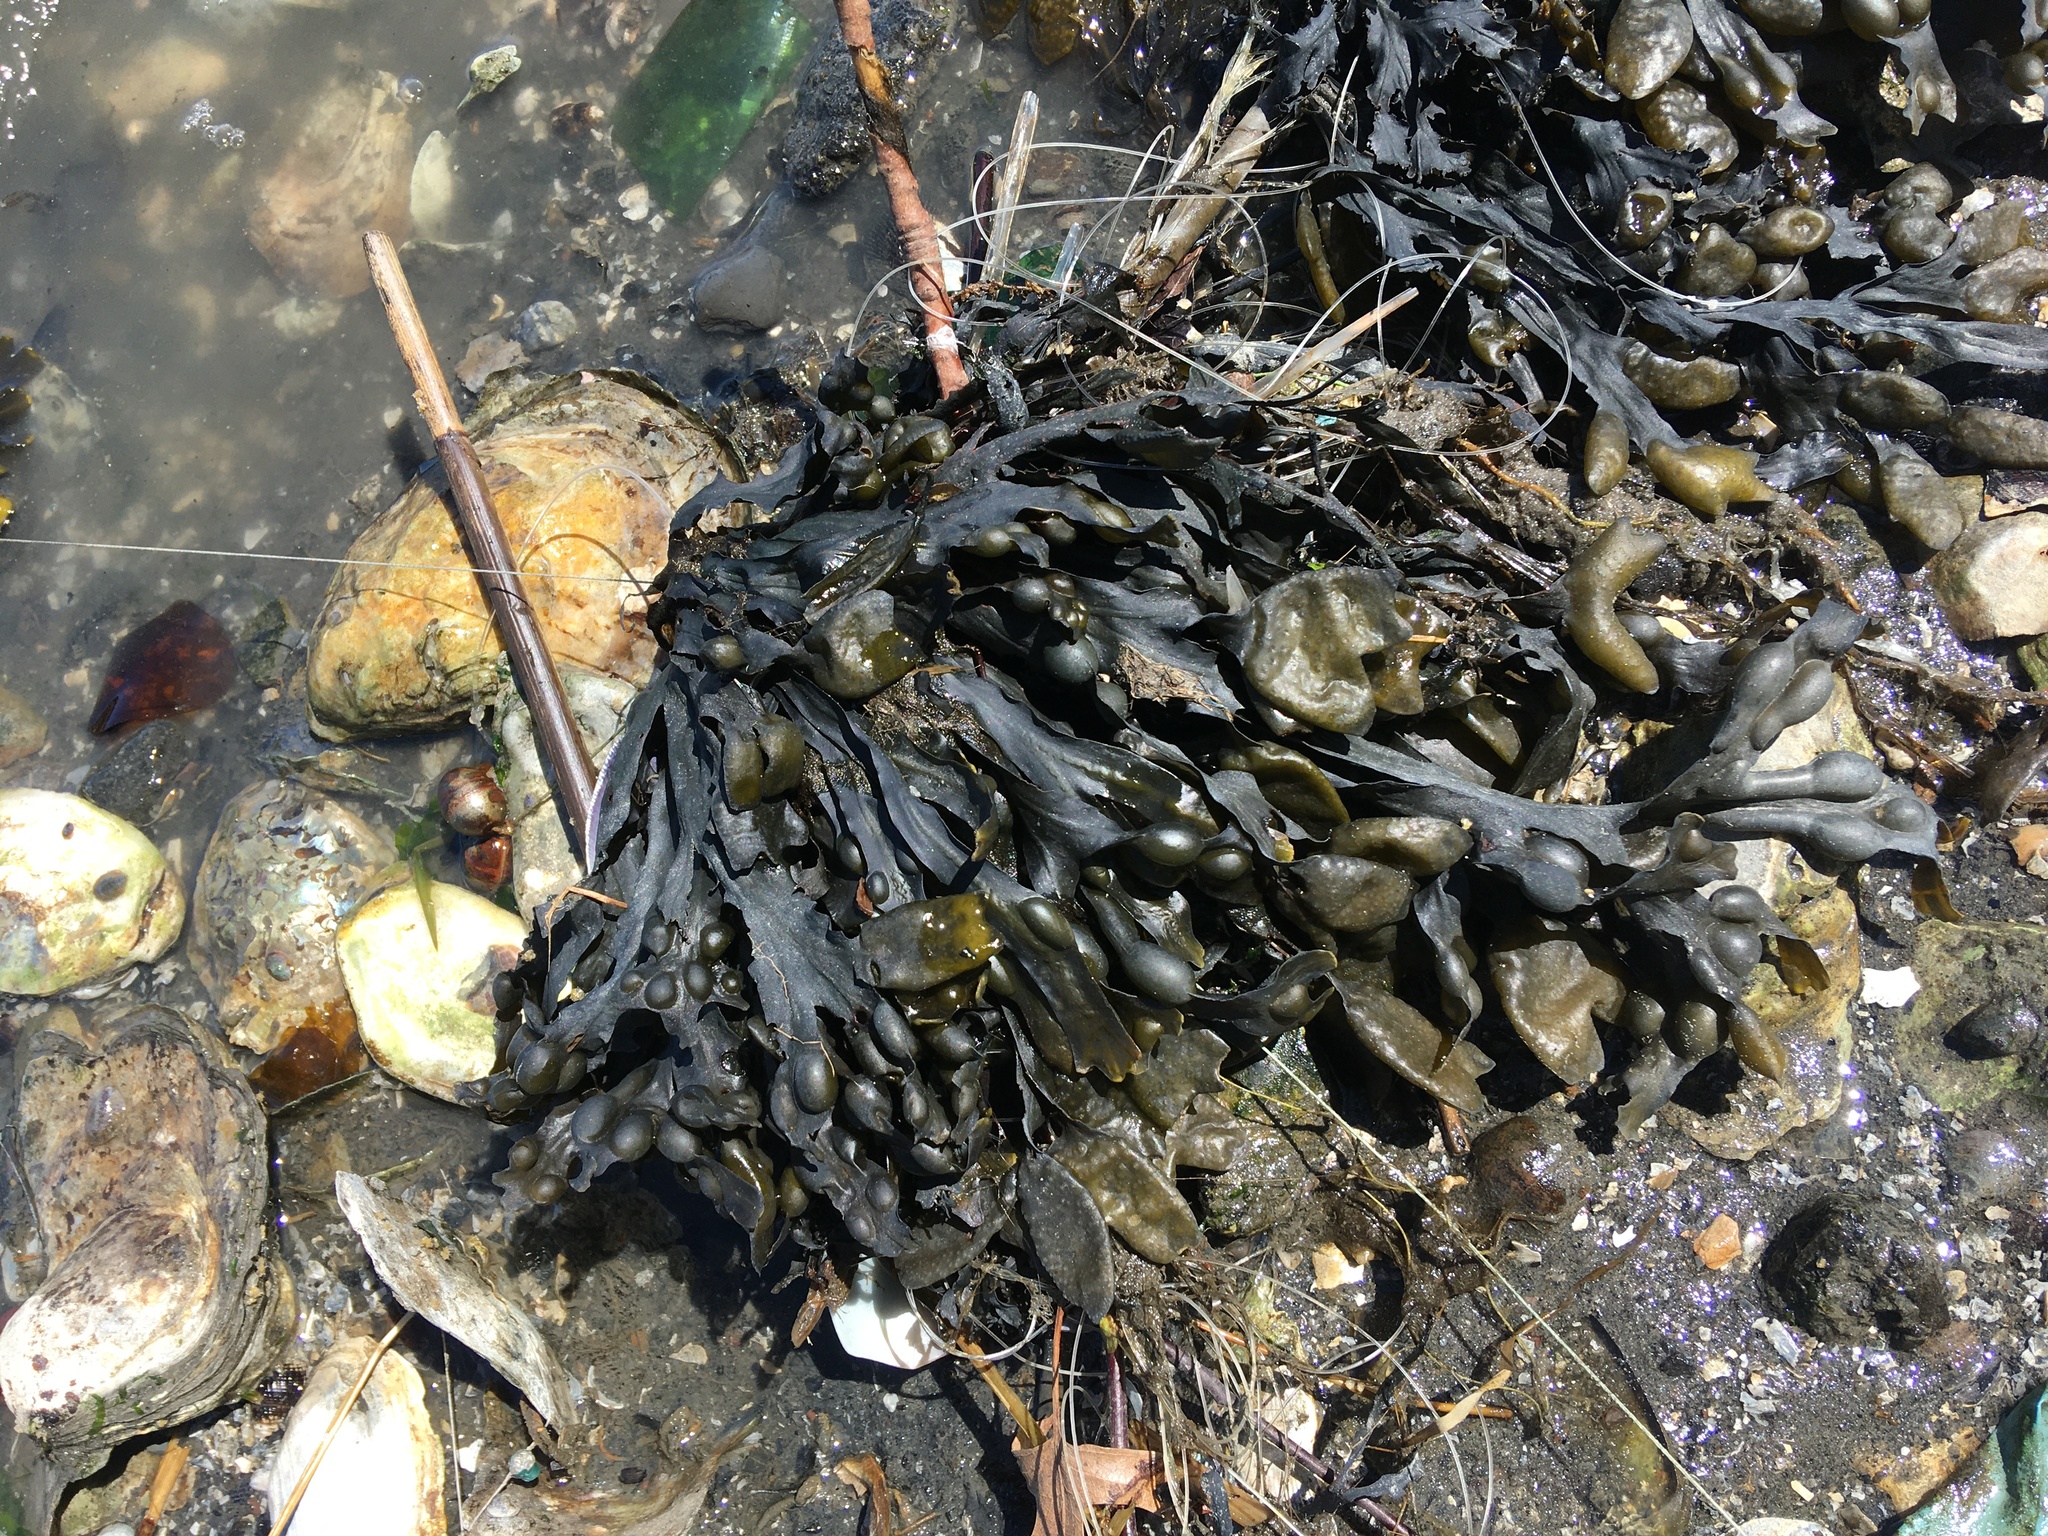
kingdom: Chromista
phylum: Ochrophyta
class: Phaeophyceae
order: Fucales
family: Fucaceae
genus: Fucus
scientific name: Fucus vesiculosus
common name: Bladder wrack
